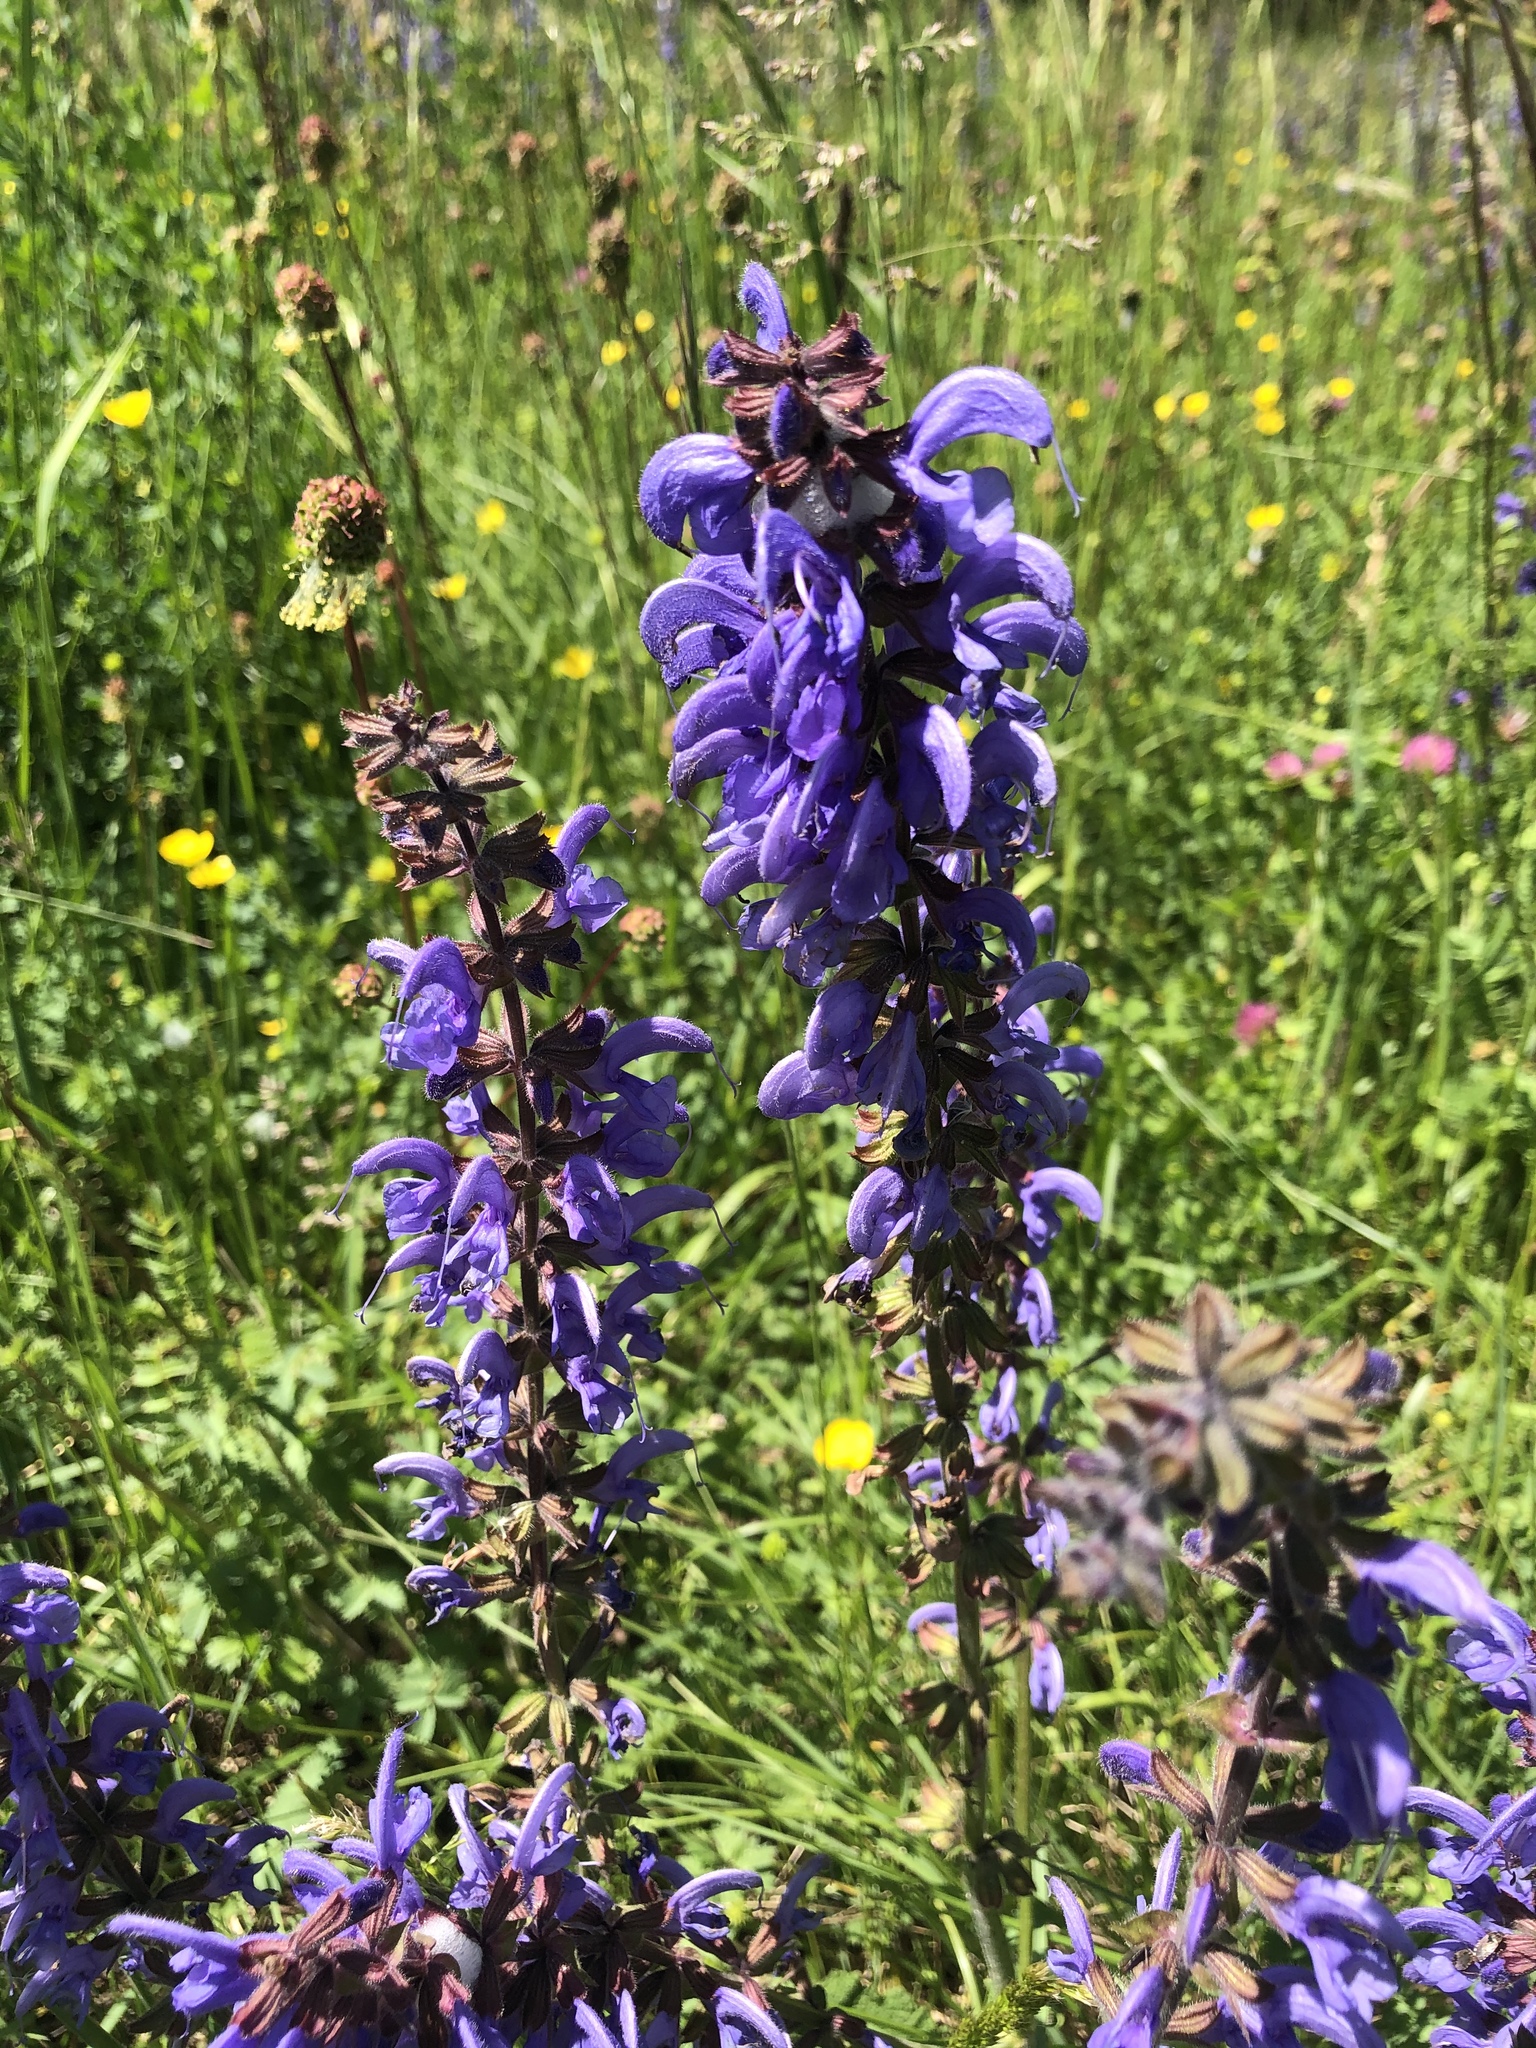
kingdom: Plantae
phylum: Tracheophyta
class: Magnoliopsida
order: Lamiales
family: Lamiaceae
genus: Salvia
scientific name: Salvia pratensis
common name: Meadow sage
